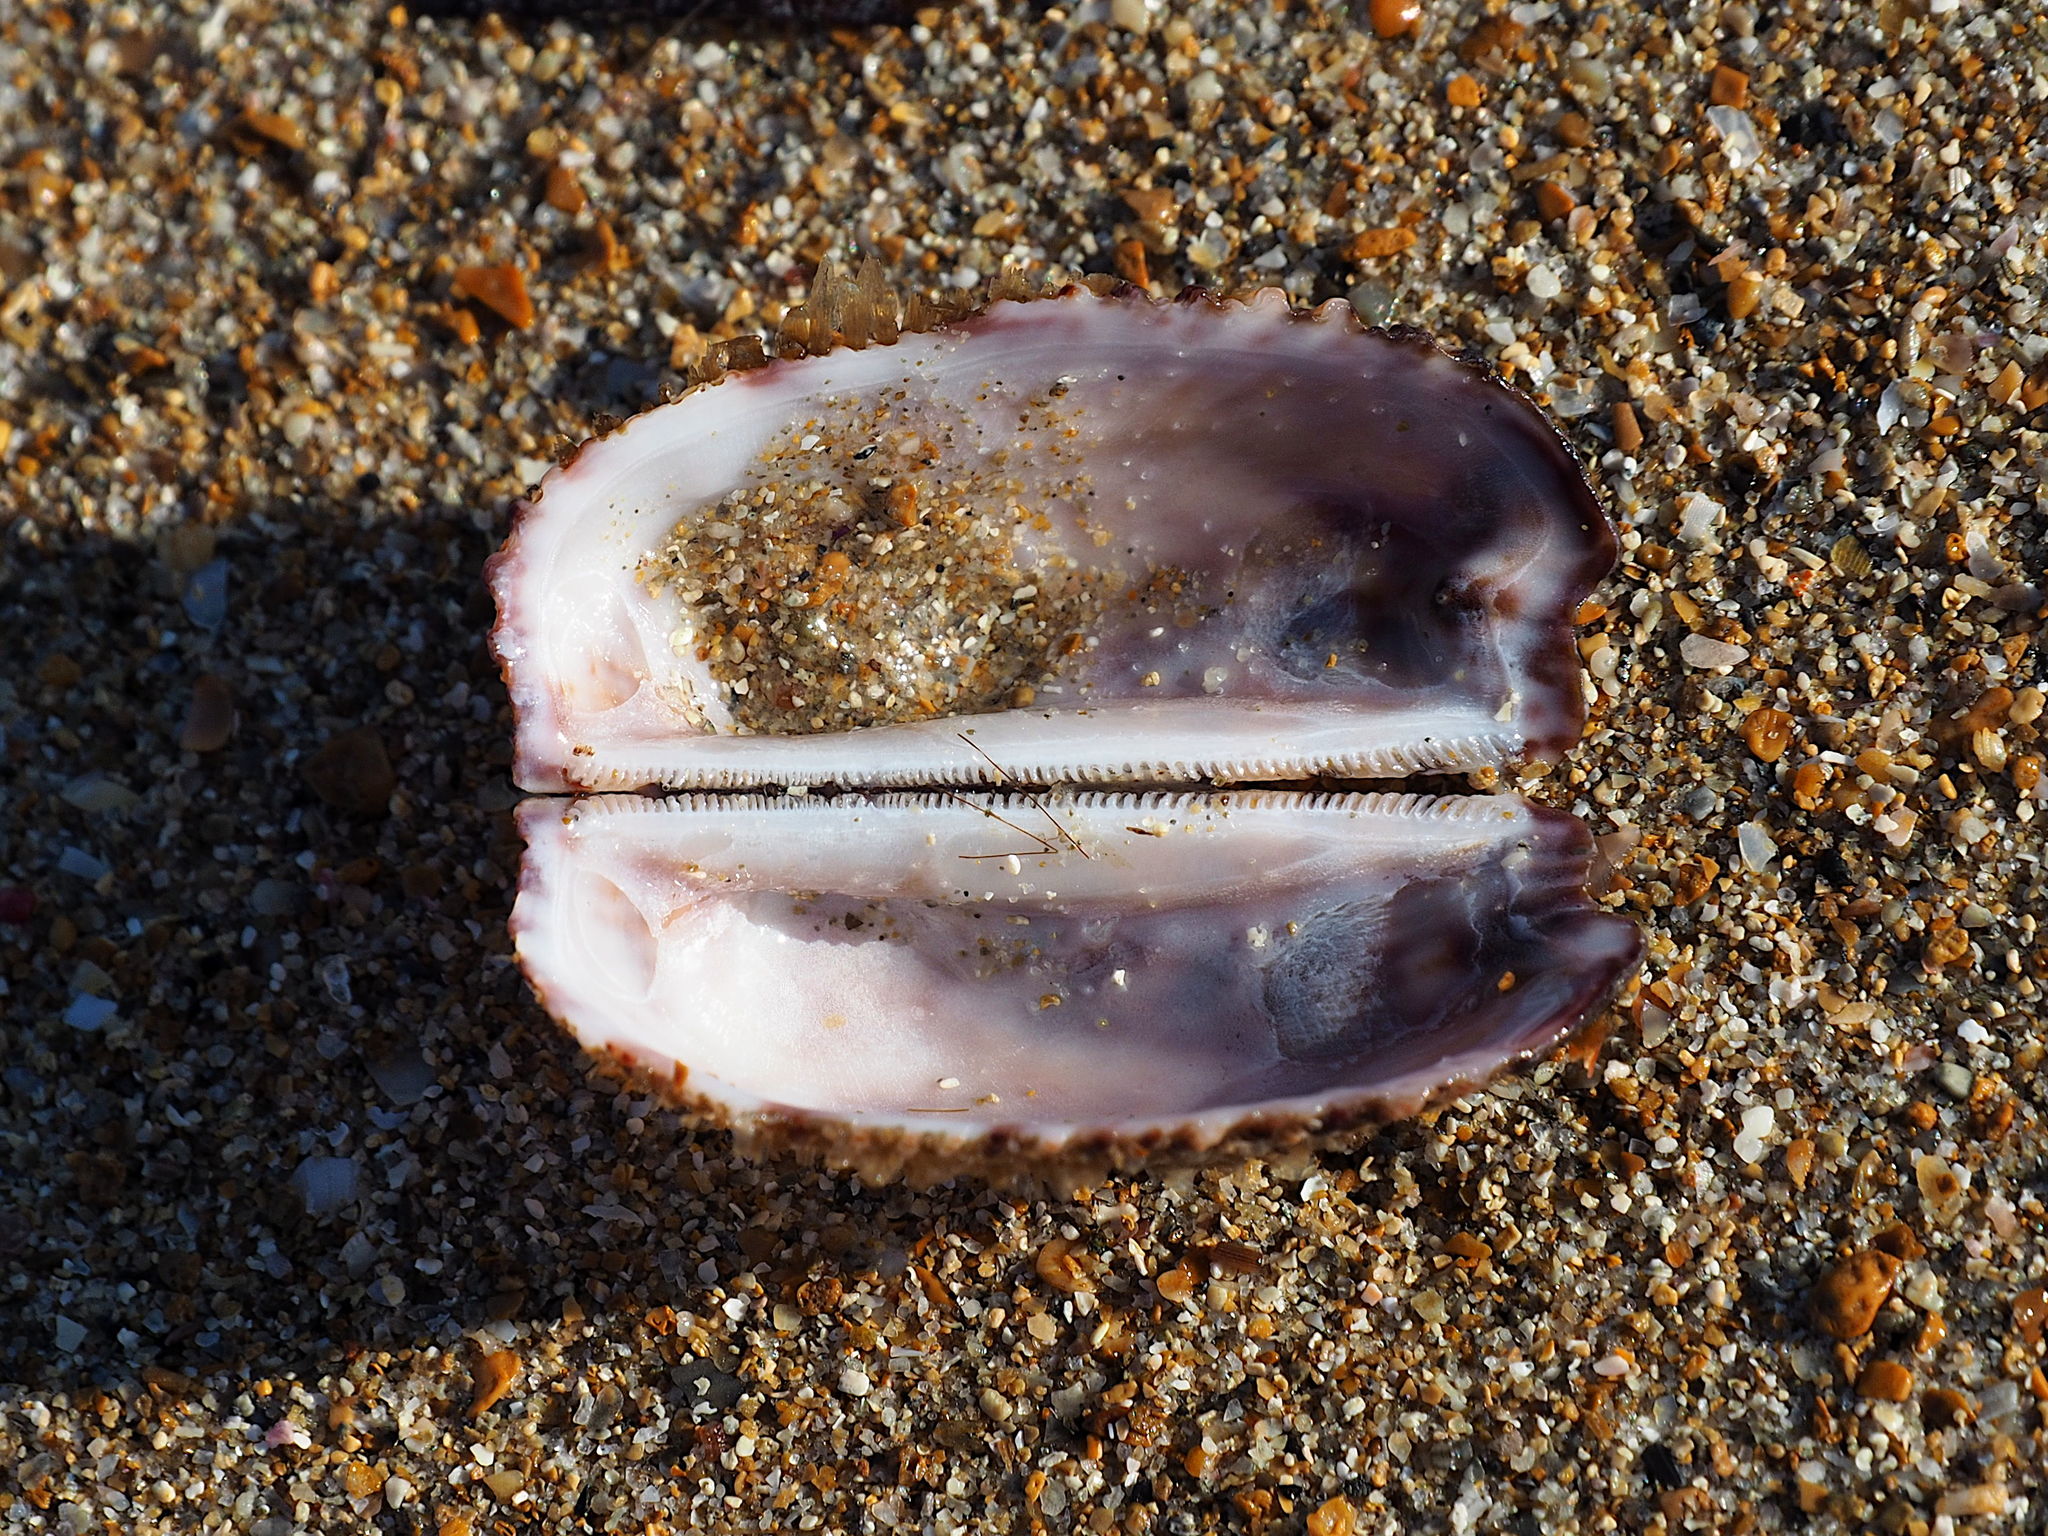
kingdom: Animalia
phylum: Mollusca
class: Bivalvia
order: Arcida
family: Arcidae
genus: Arca
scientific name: Arca noae
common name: Noah's arch
